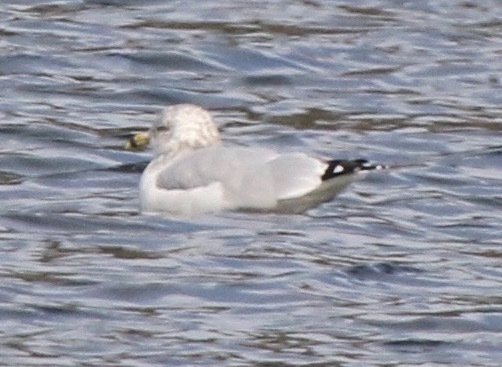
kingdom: Animalia
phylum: Chordata
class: Aves
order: Charadriiformes
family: Laridae
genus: Larus
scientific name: Larus delawarensis
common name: Ring-billed gull
